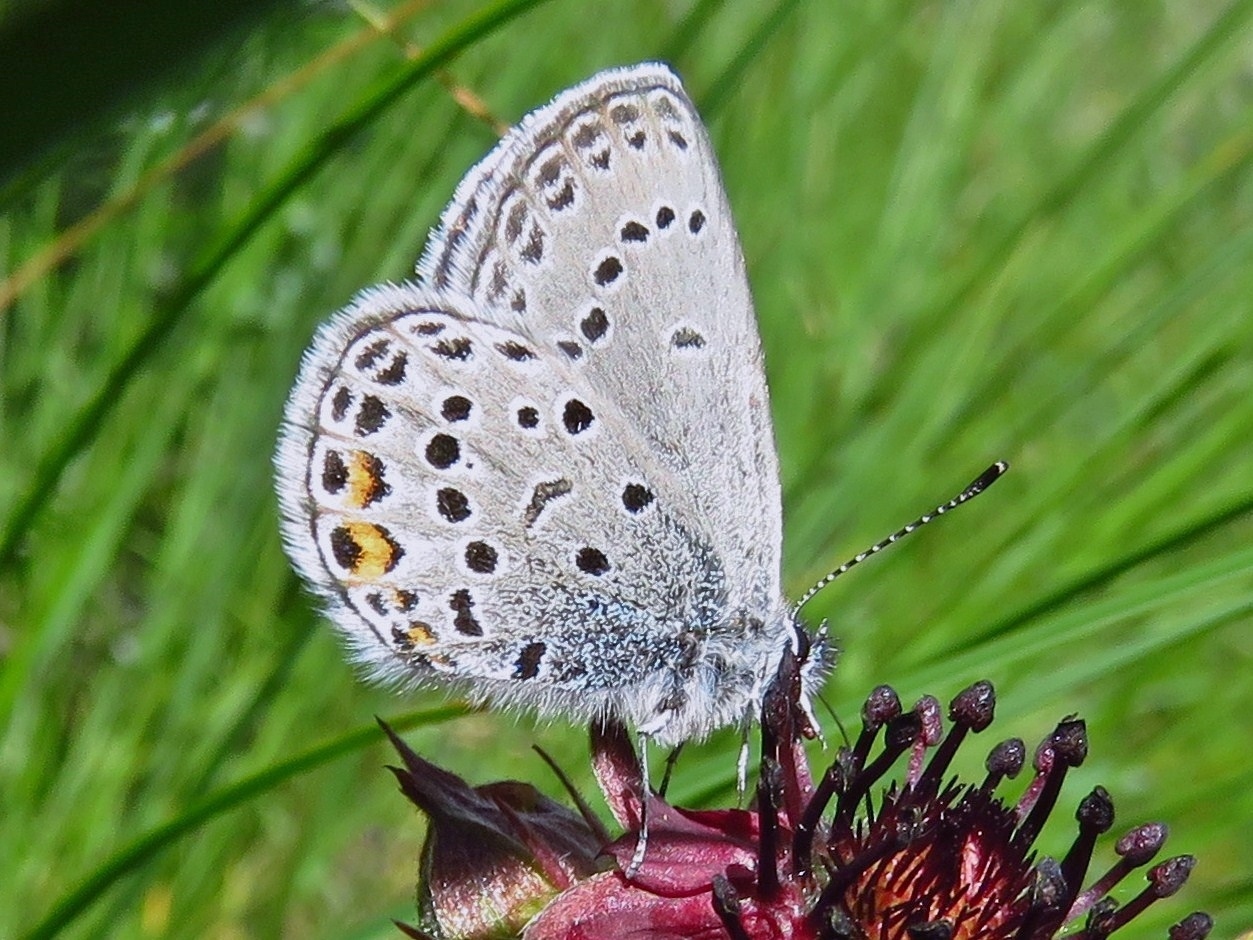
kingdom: Animalia
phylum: Arthropoda
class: Insecta
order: Lepidoptera
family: Lycaenidae
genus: Vacciniina
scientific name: Vacciniina optilete
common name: Cranberry blue
